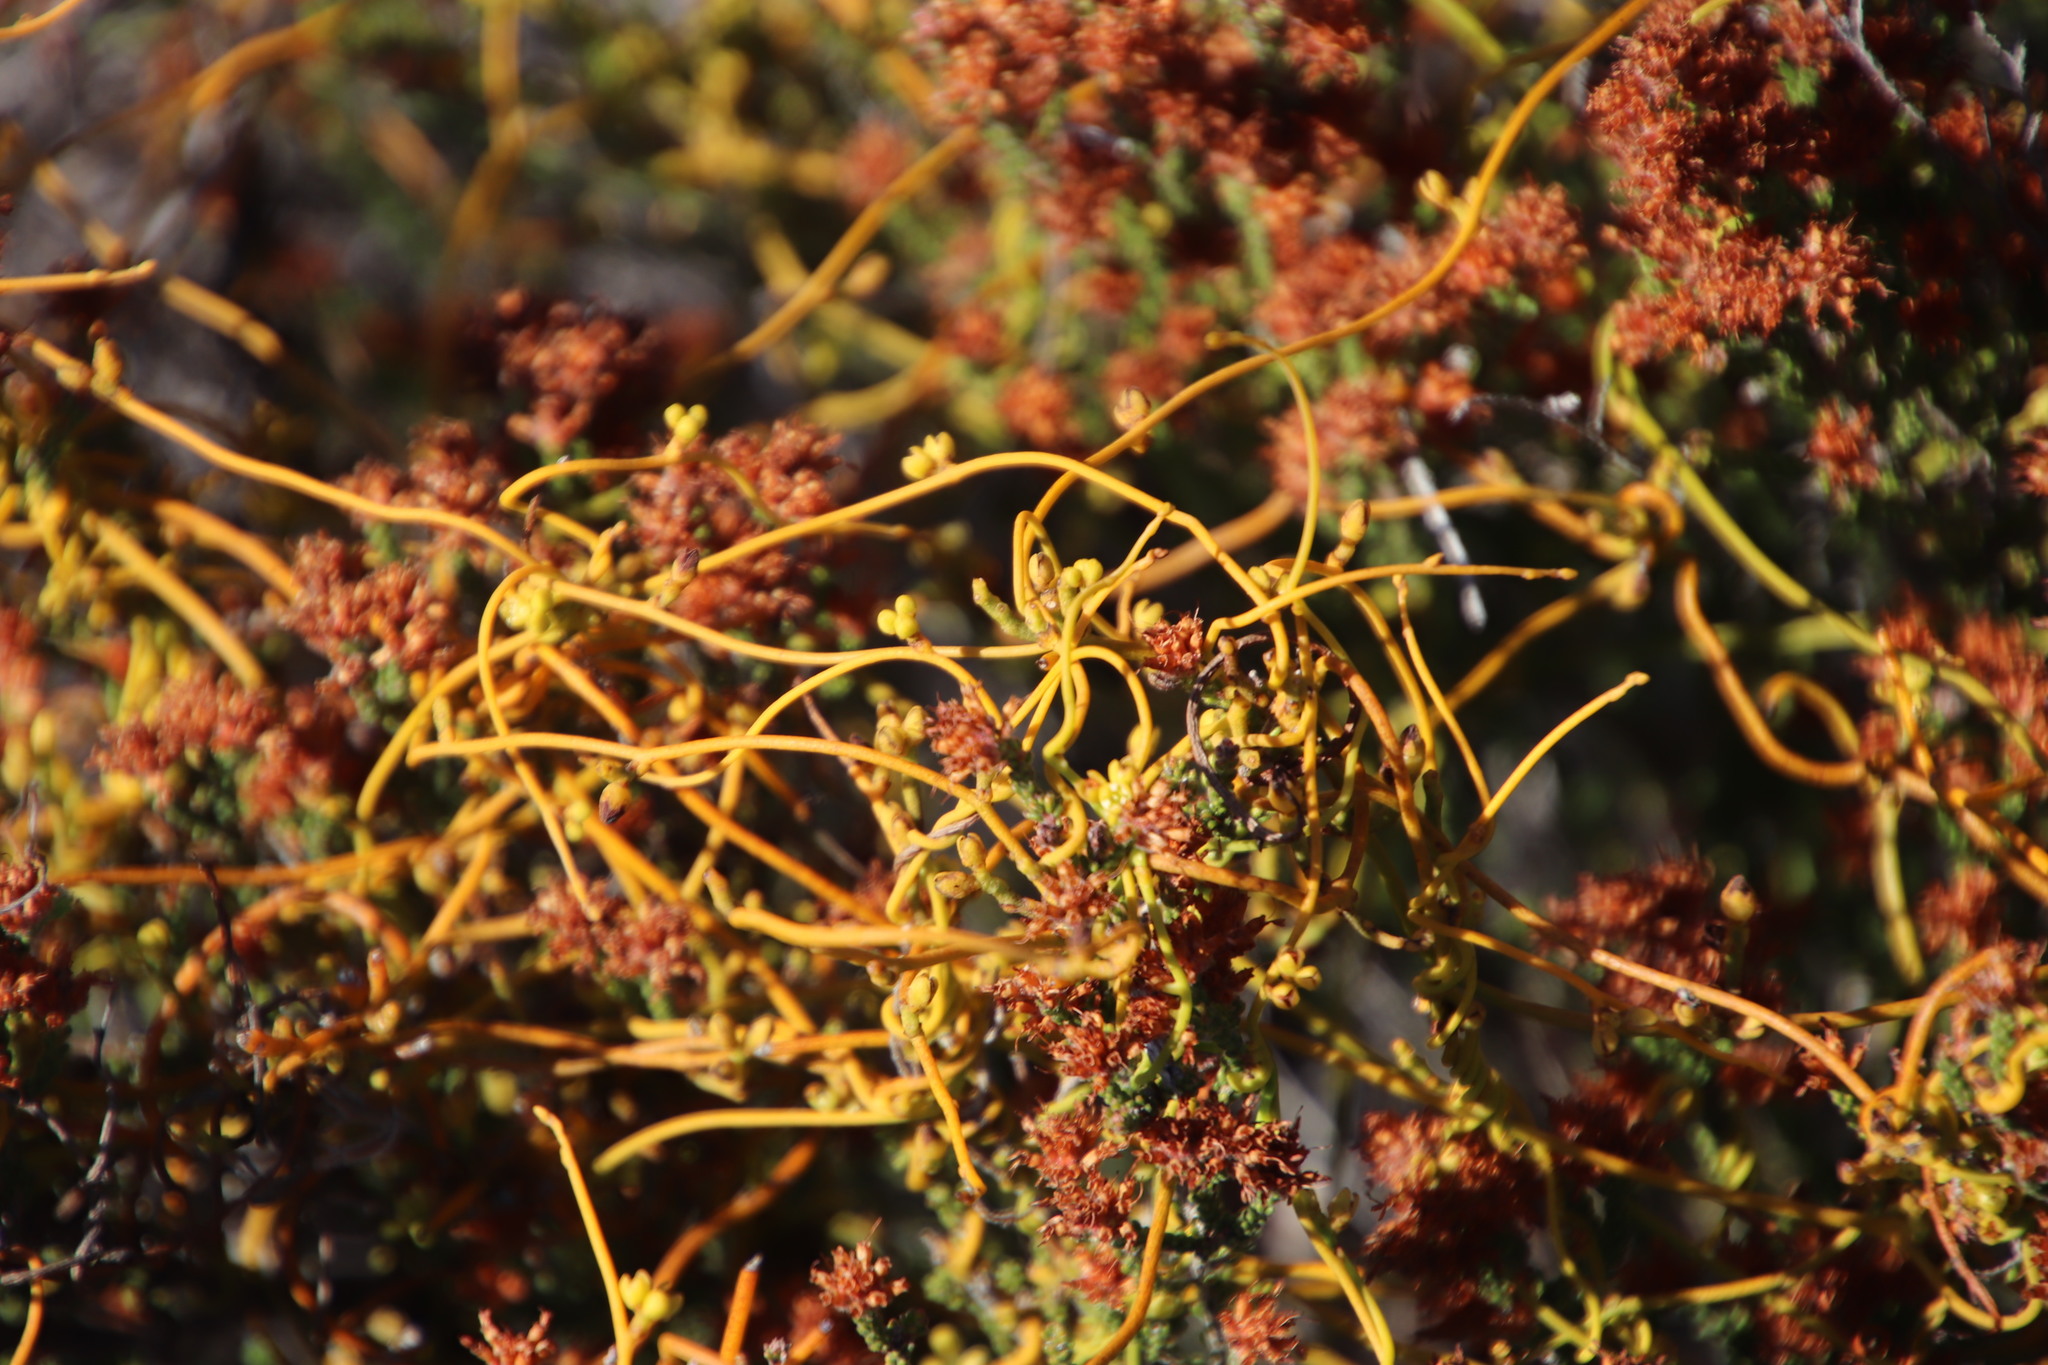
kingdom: Plantae
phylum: Tracheophyta
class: Magnoliopsida
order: Laurales
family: Lauraceae
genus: Cassytha
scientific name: Cassytha ciliolata
